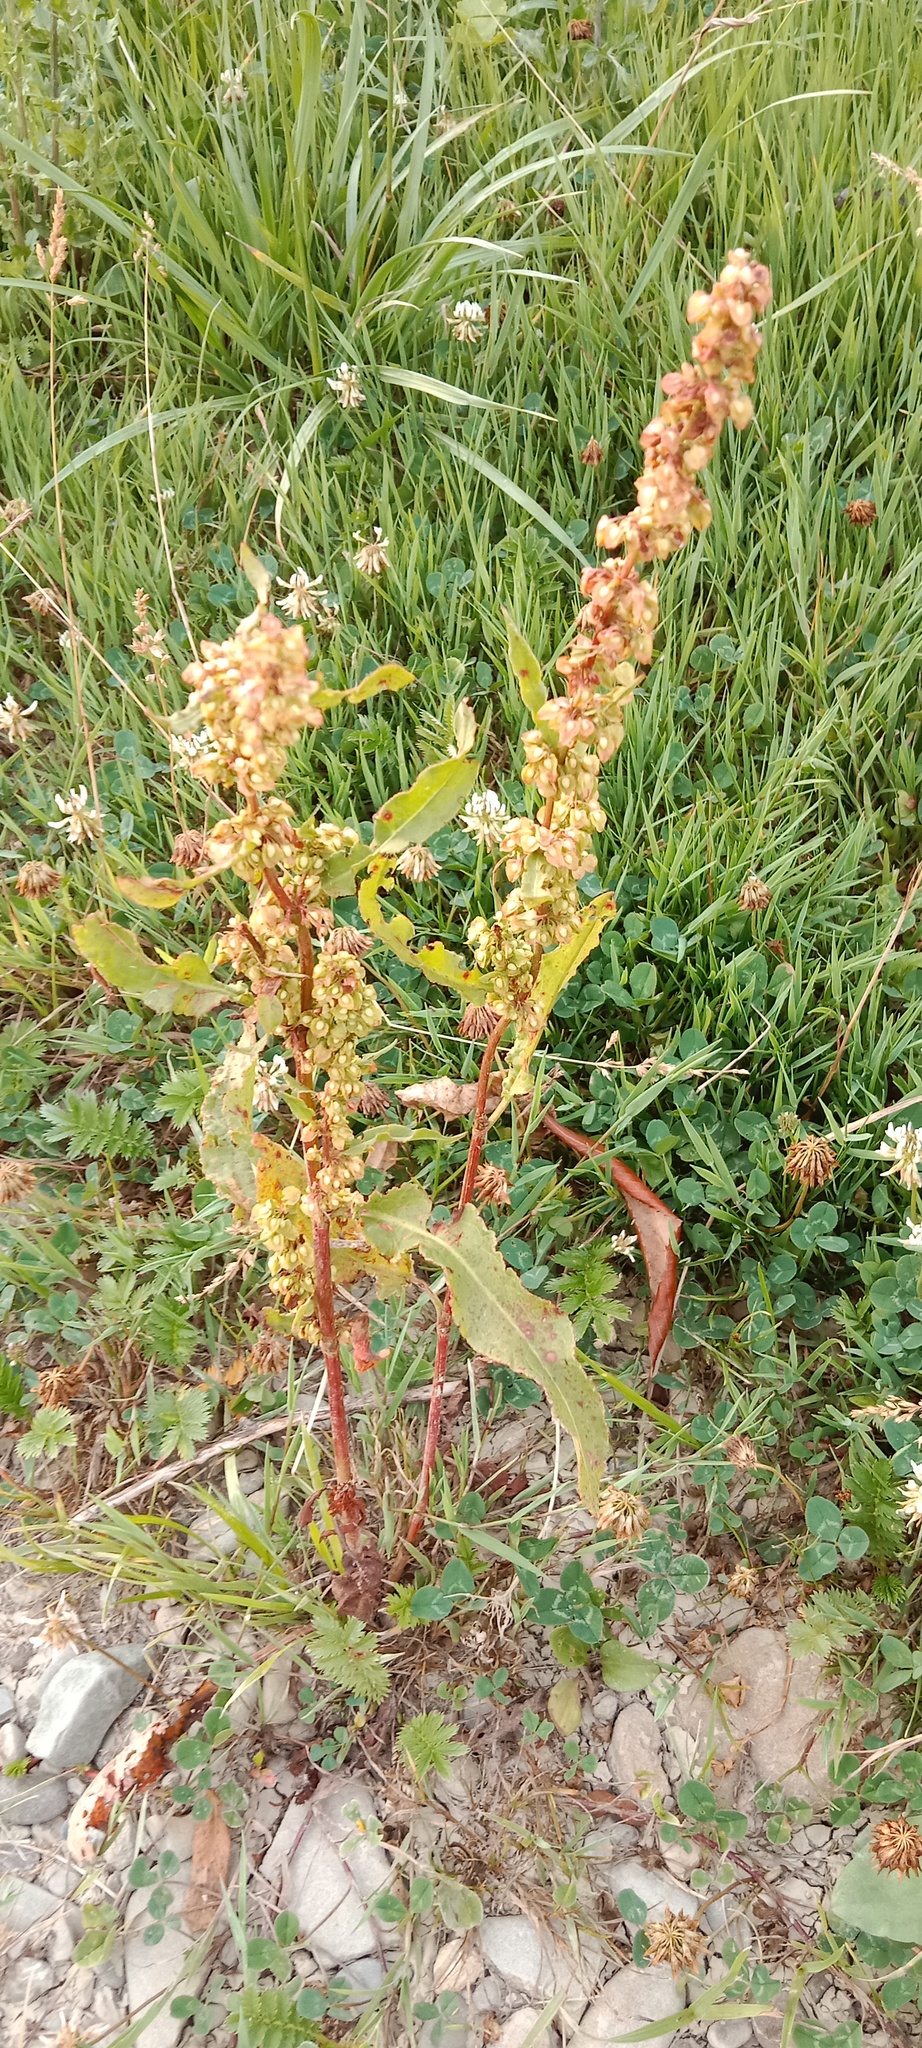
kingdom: Plantae
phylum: Tracheophyta
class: Magnoliopsida
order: Caryophyllales
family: Polygonaceae
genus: Rumex
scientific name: Rumex crispus
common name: Curled dock
